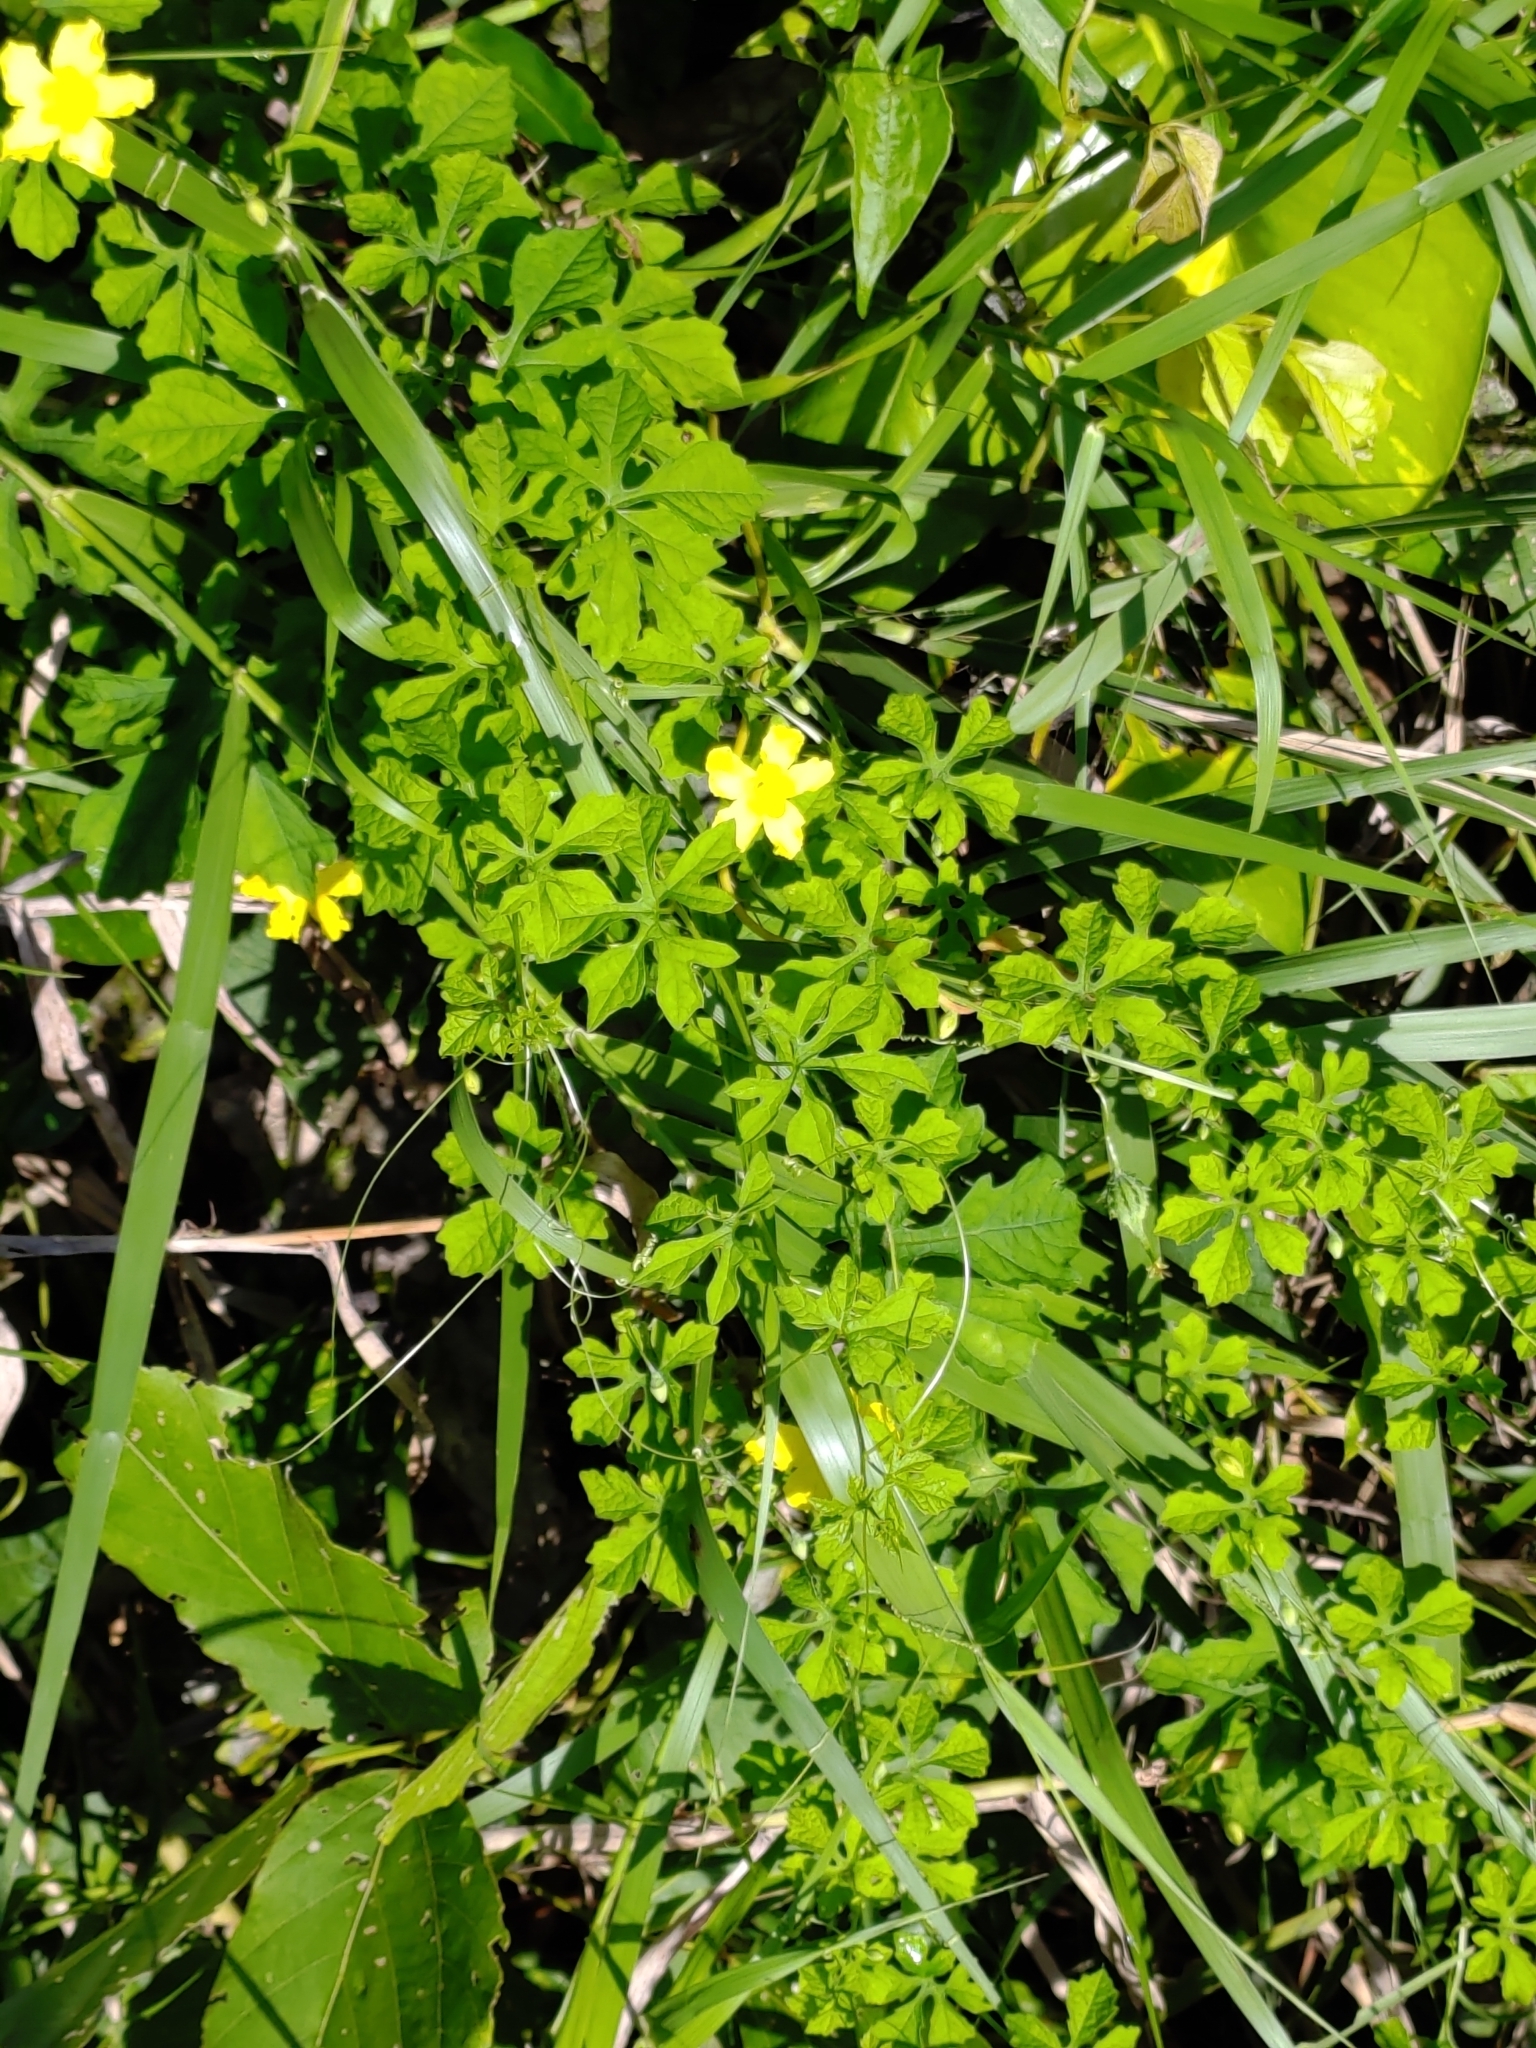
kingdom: Plantae
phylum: Tracheophyta
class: Magnoliopsida
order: Cucurbitales
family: Cucurbitaceae
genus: Momordica
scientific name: Momordica charantia
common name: Balsampear
